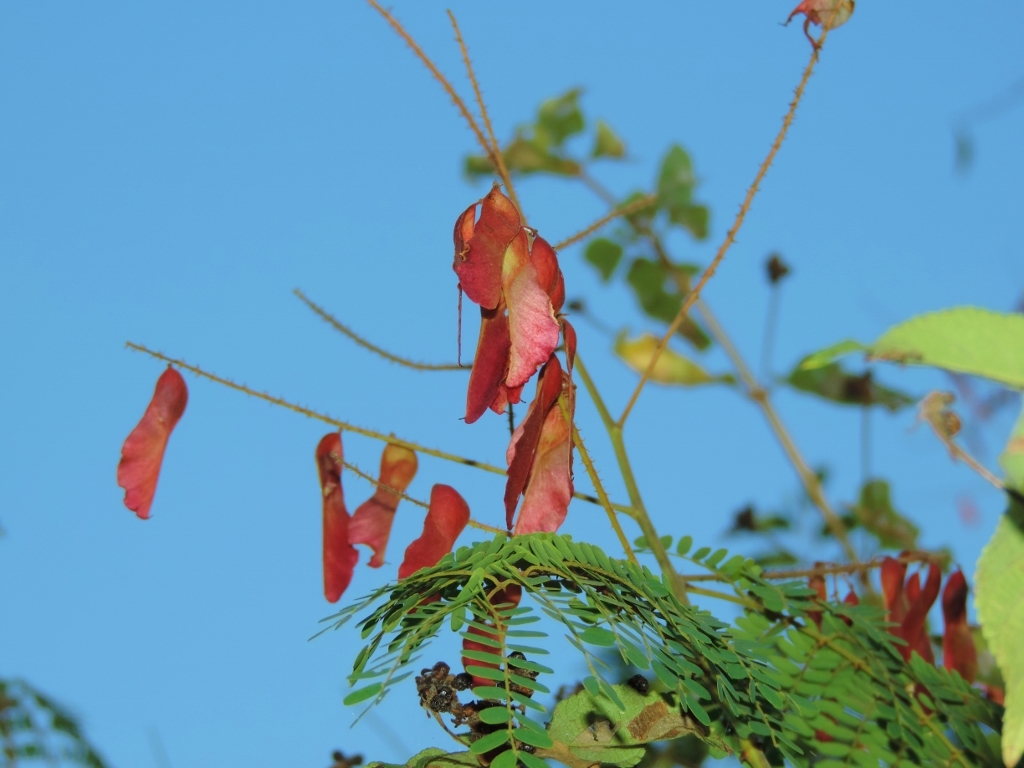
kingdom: Plantae
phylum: Tracheophyta
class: Magnoliopsida
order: Fabales
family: Fabaceae
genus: Pterolobium
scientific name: Pterolobium stellatum
